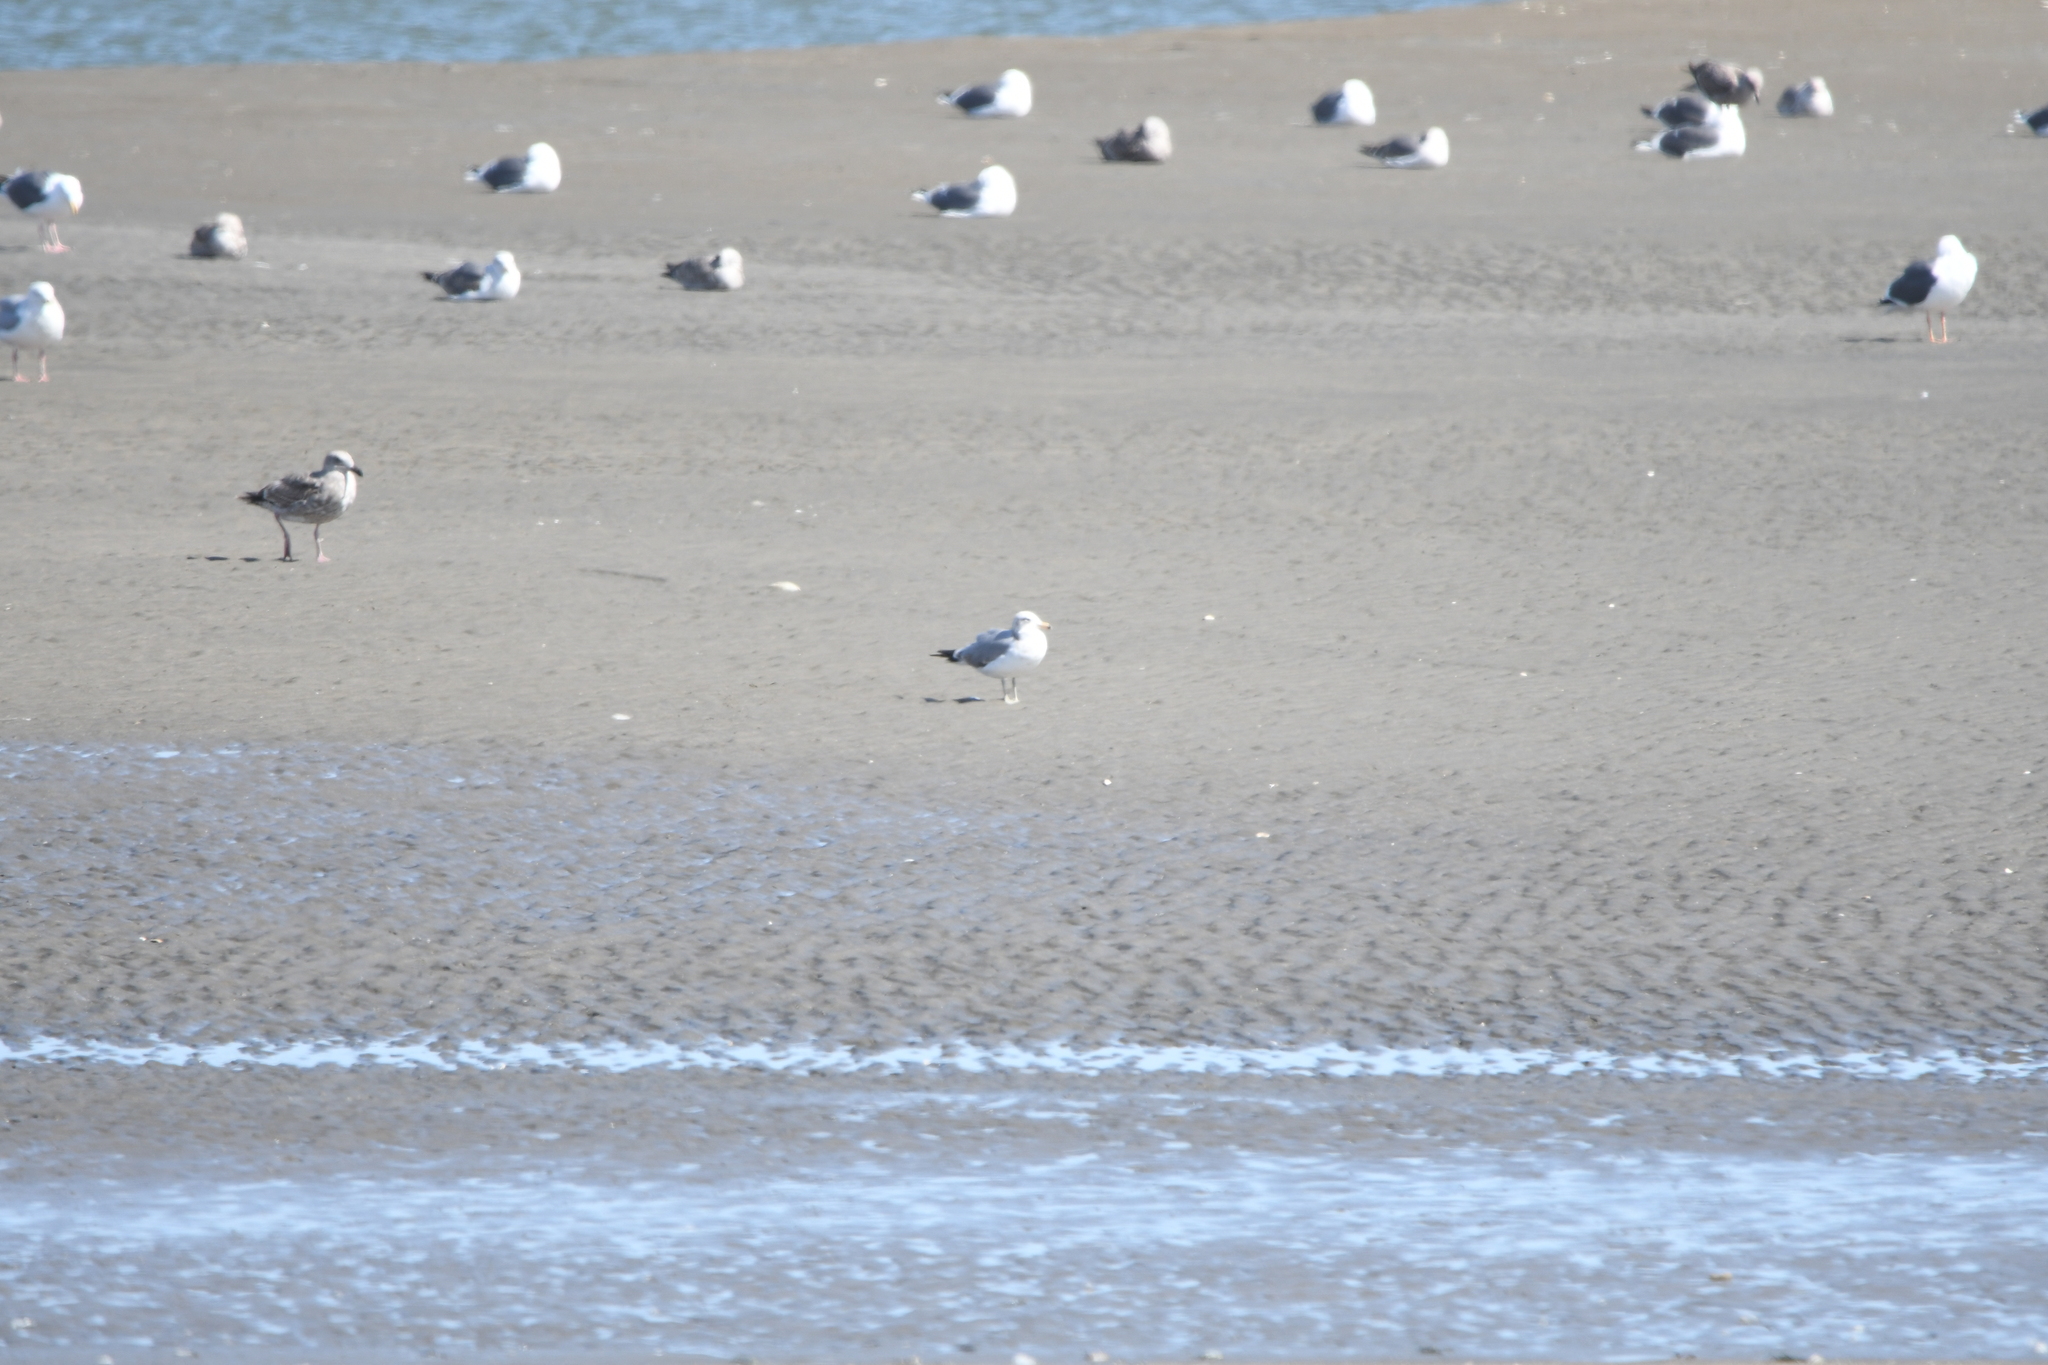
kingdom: Animalia
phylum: Chordata
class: Aves
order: Charadriiformes
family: Laridae
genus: Larus
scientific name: Larus californicus
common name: California gull
